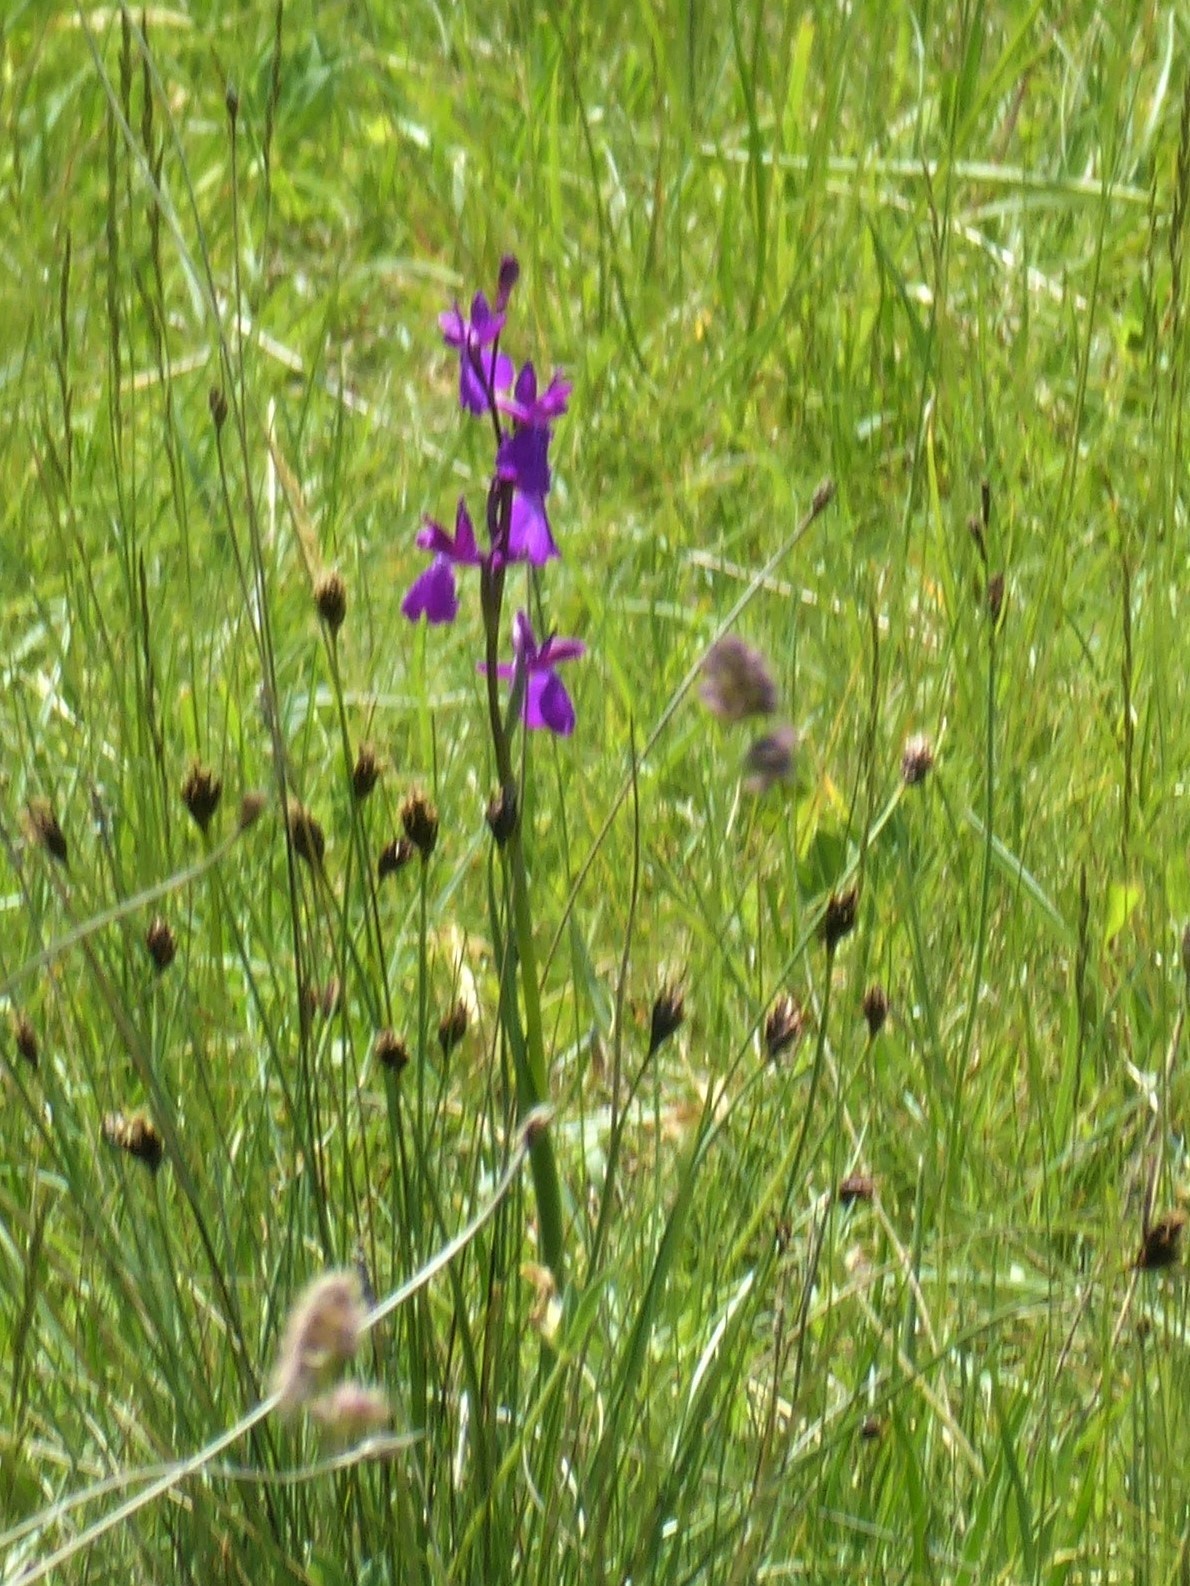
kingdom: Plantae
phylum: Tracheophyta
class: Liliopsida
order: Asparagales
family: Orchidaceae
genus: Anacamptis
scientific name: Anacamptis palustris
